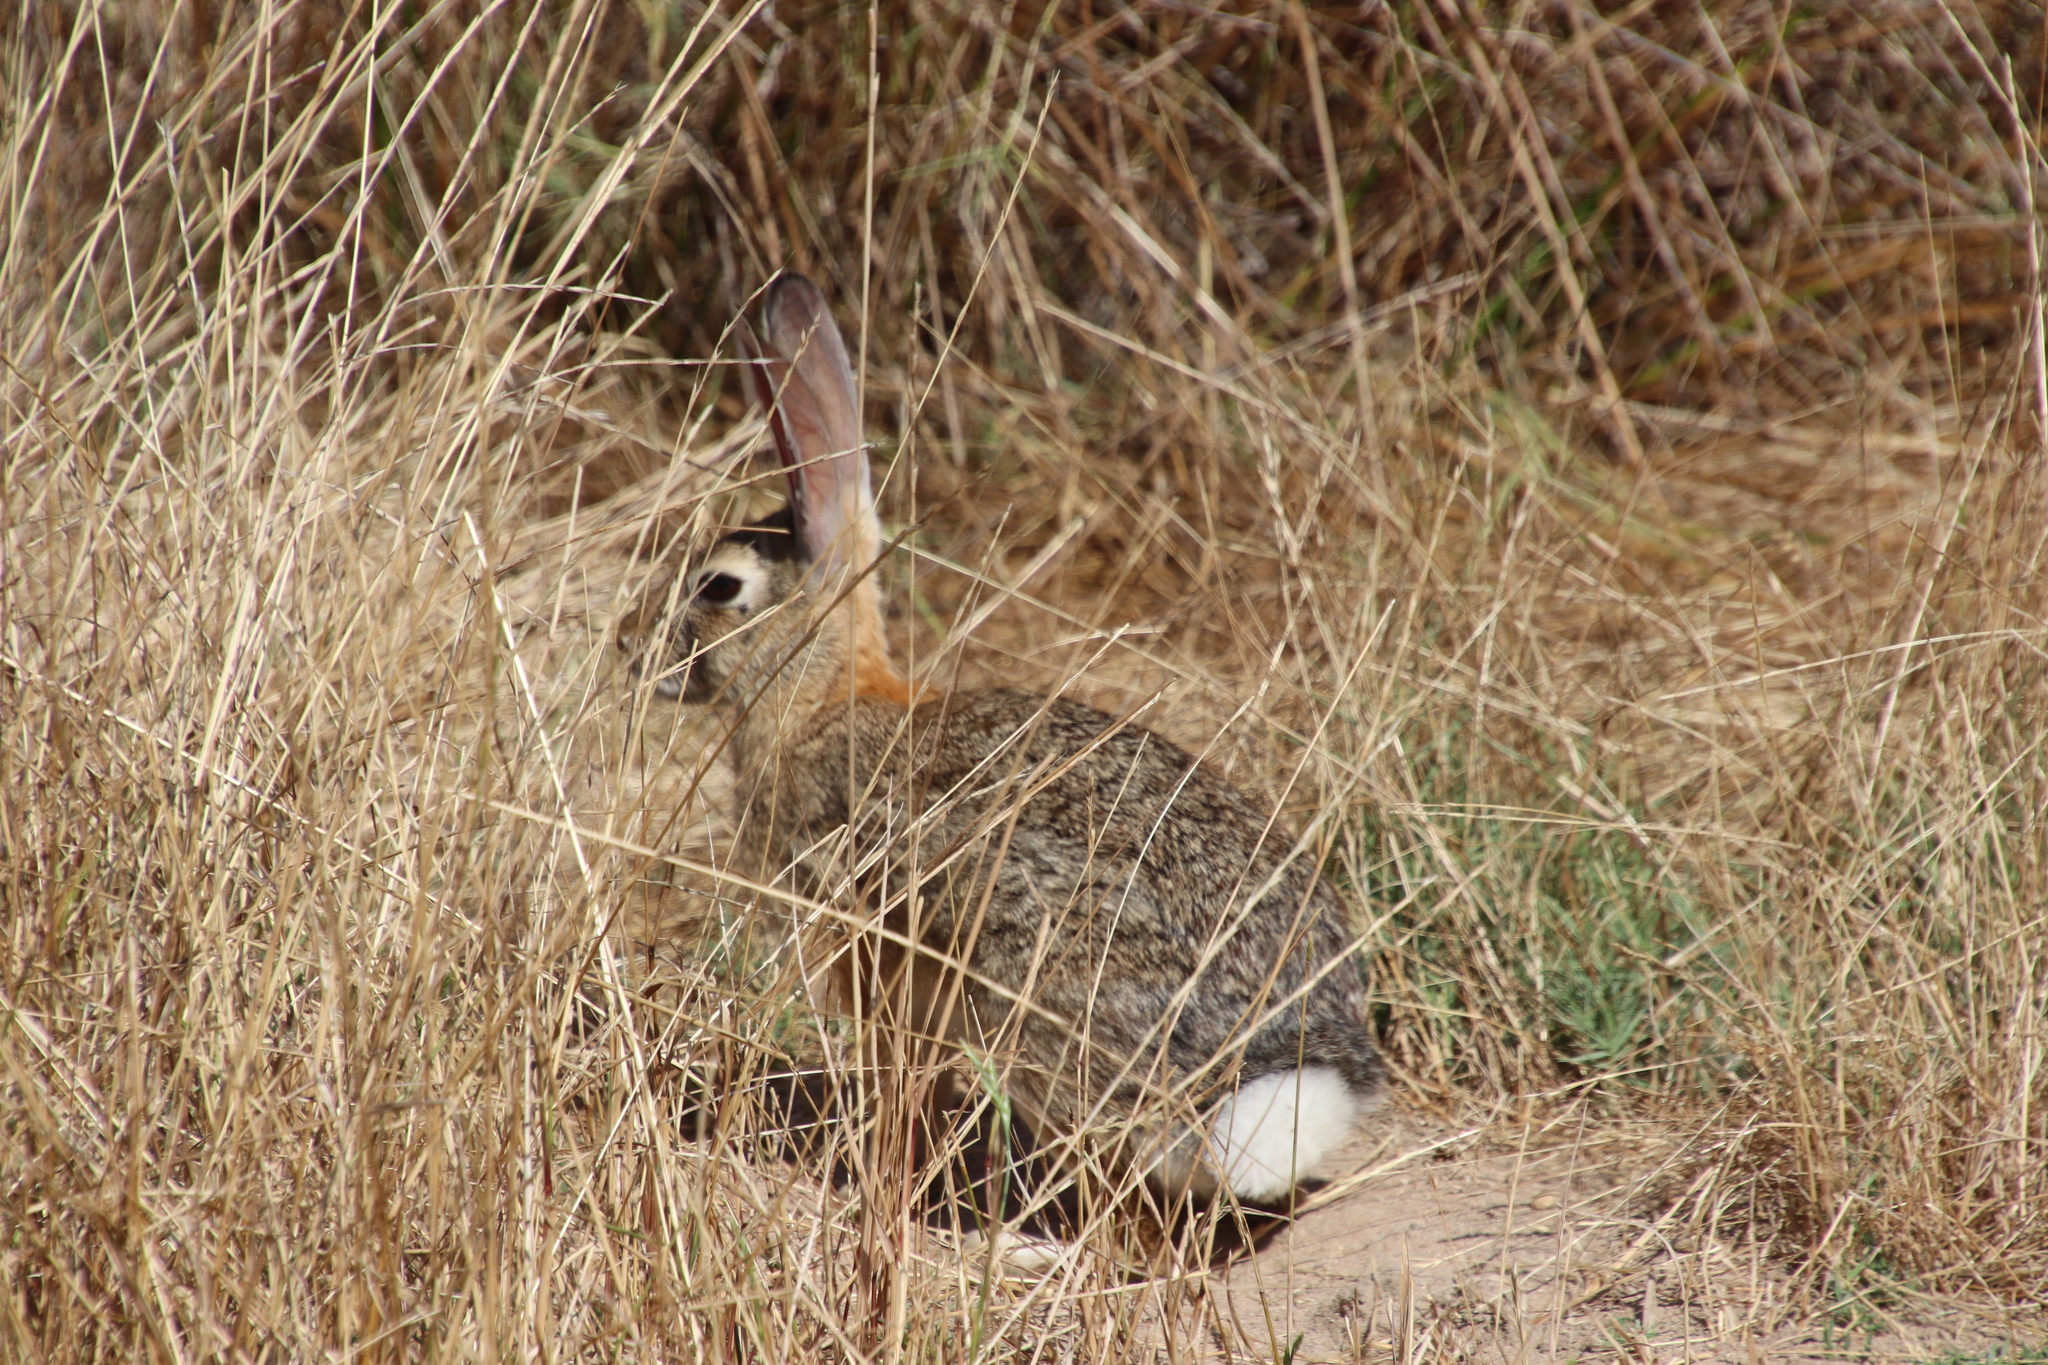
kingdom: Animalia
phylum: Chordata
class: Mammalia
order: Lagomorpha
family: Leporidae
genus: Sylvilagus
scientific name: Sylvilagus audubonii
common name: Desert cottontail
